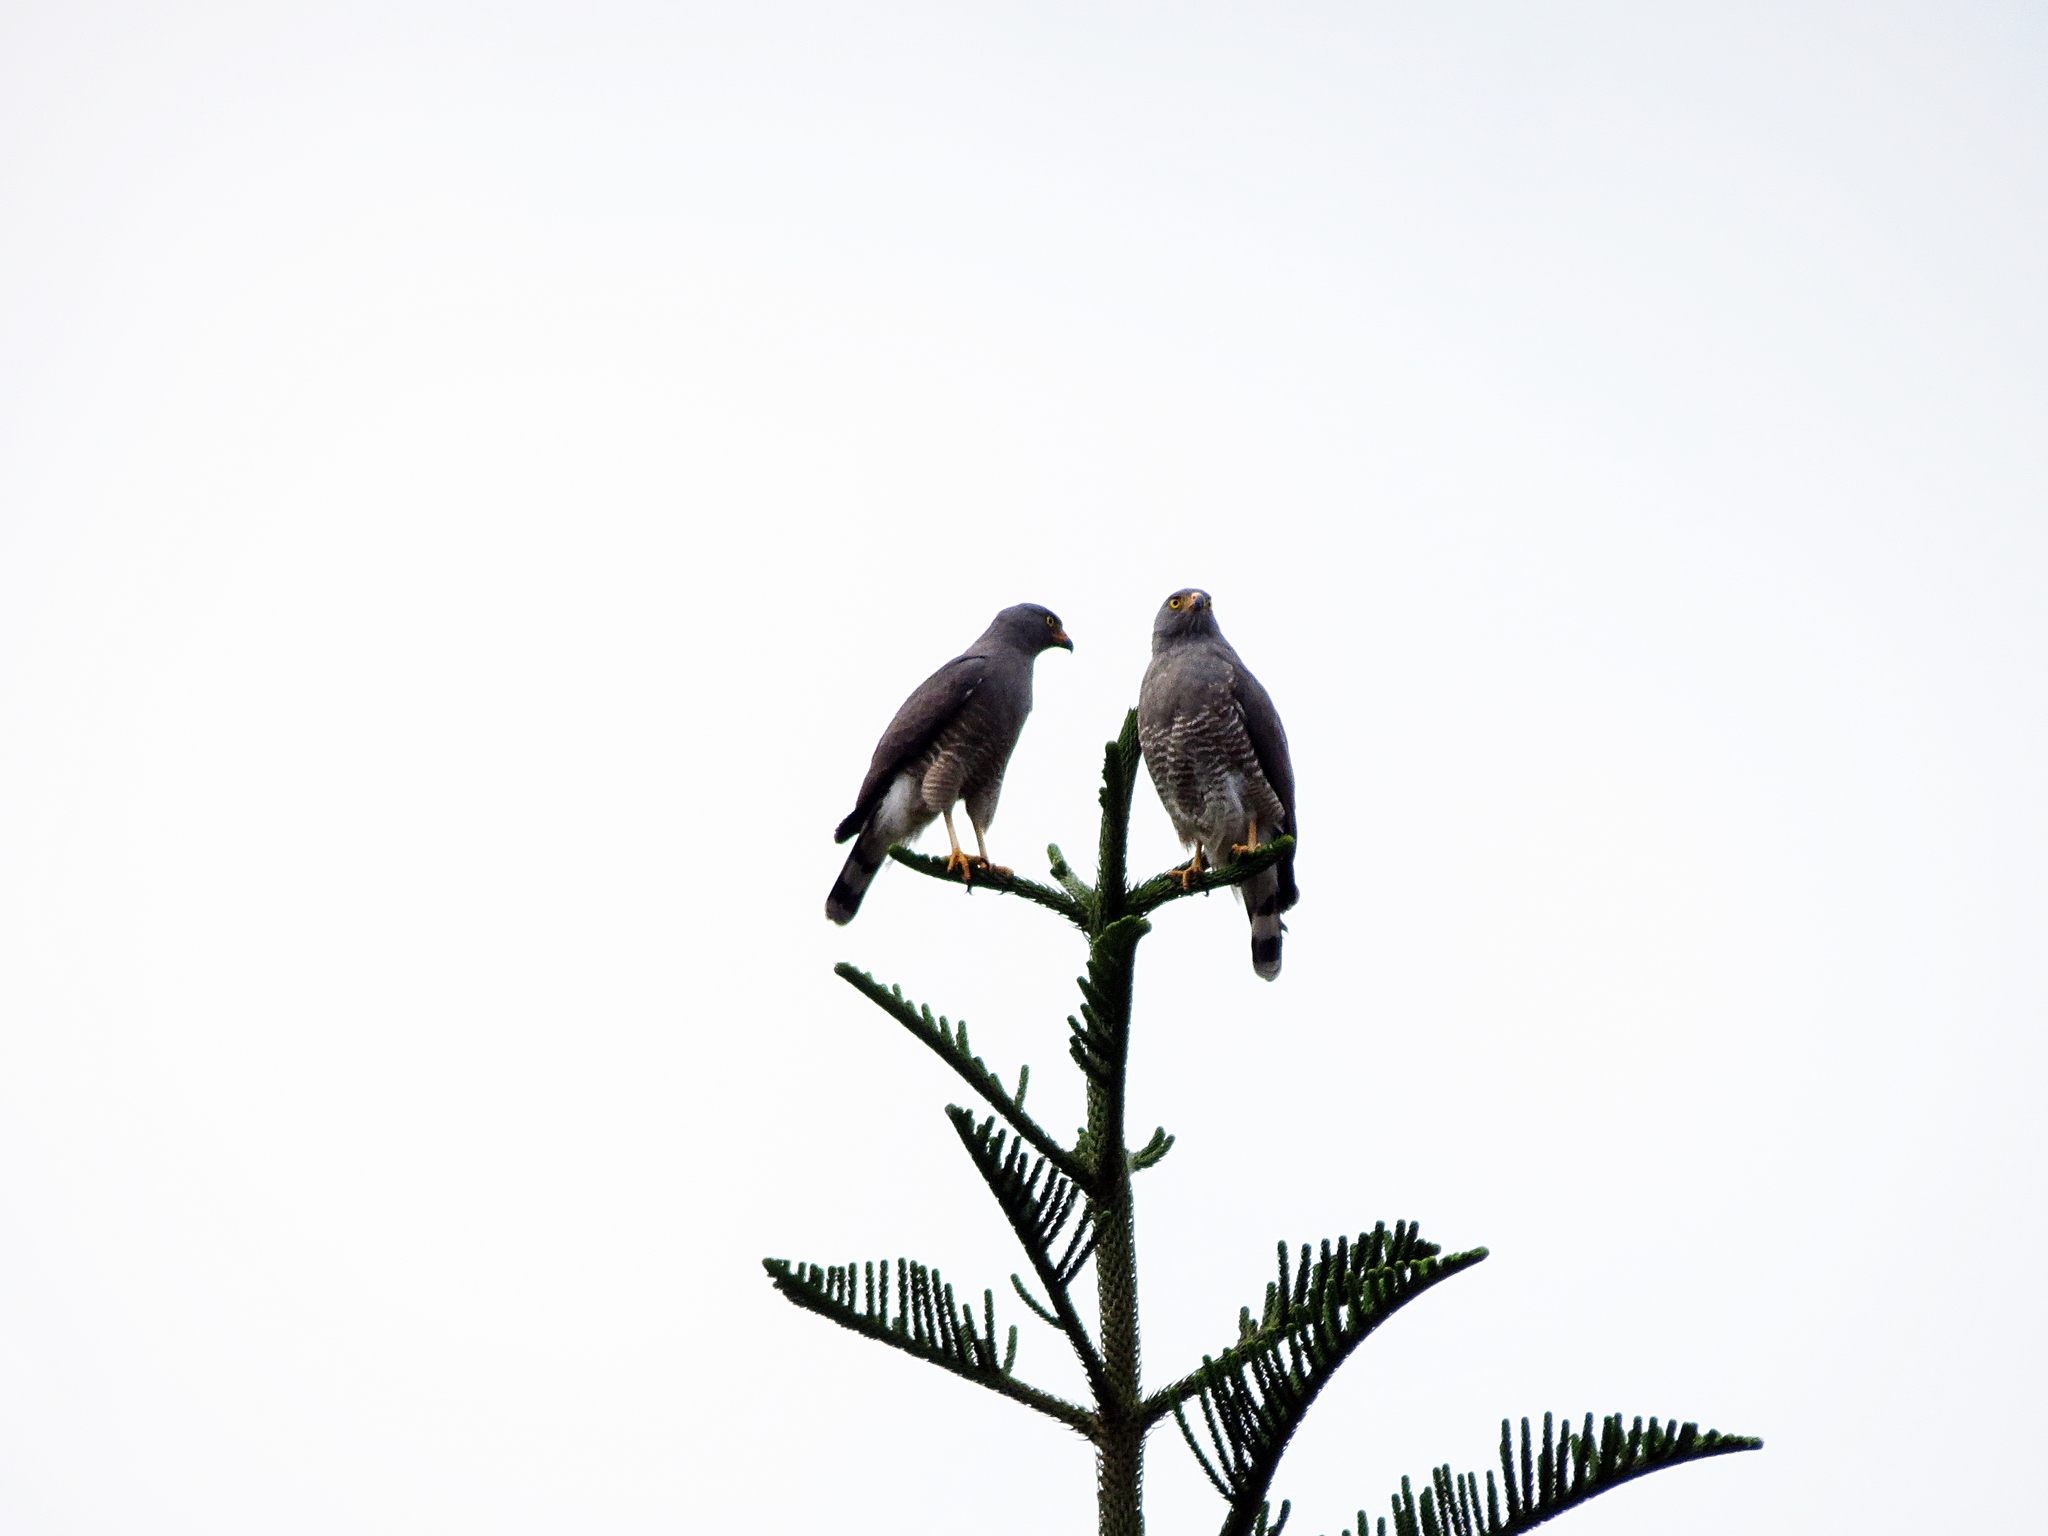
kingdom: Animalia
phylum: Chordata
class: Aves
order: Accipitriformes
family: Accipitridae
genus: Rupornis
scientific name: Rupornis magnirostris
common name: Roadside hawk
